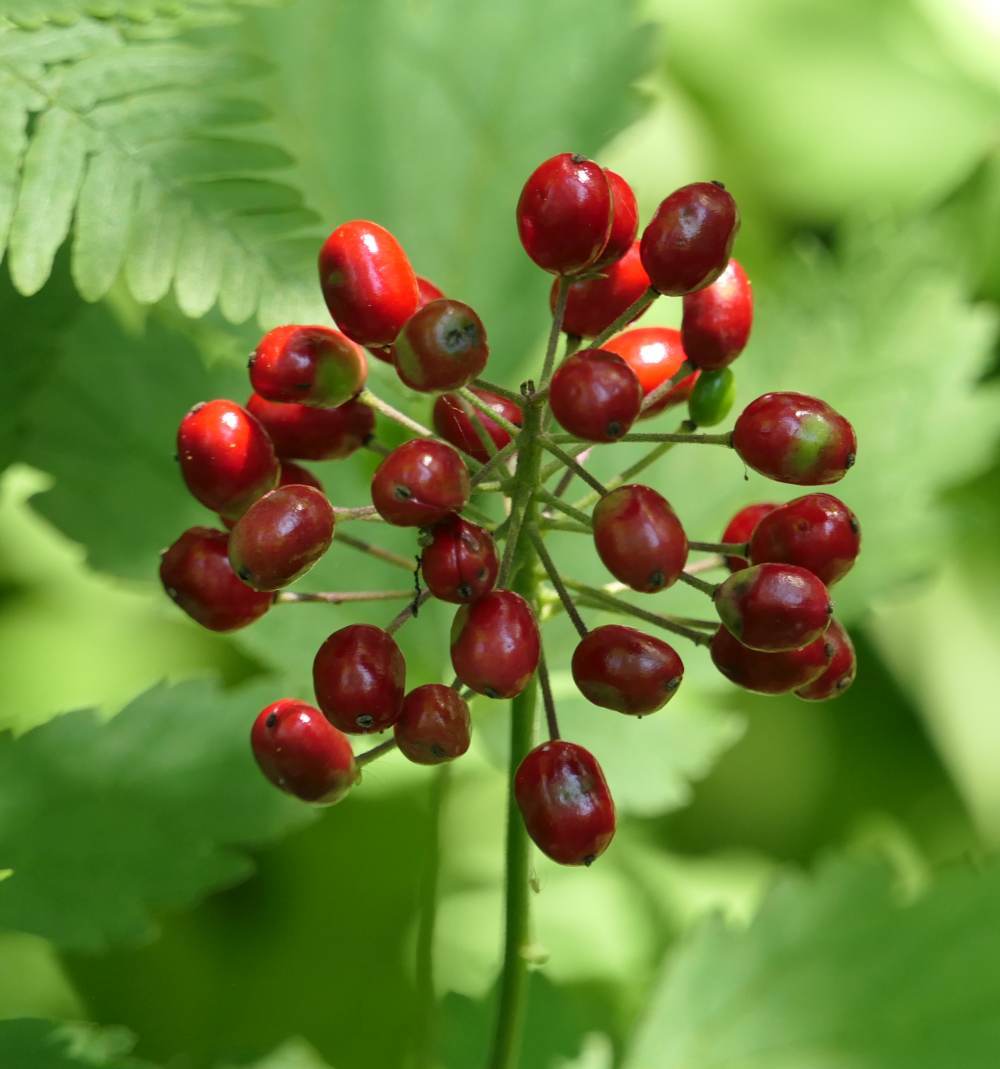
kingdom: Plantae
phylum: Tracheophyta
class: Magnoliopsida
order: Ranunculales
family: Ranunculaceae
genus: Actaea
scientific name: Actaea rubra
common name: Red baneberry
